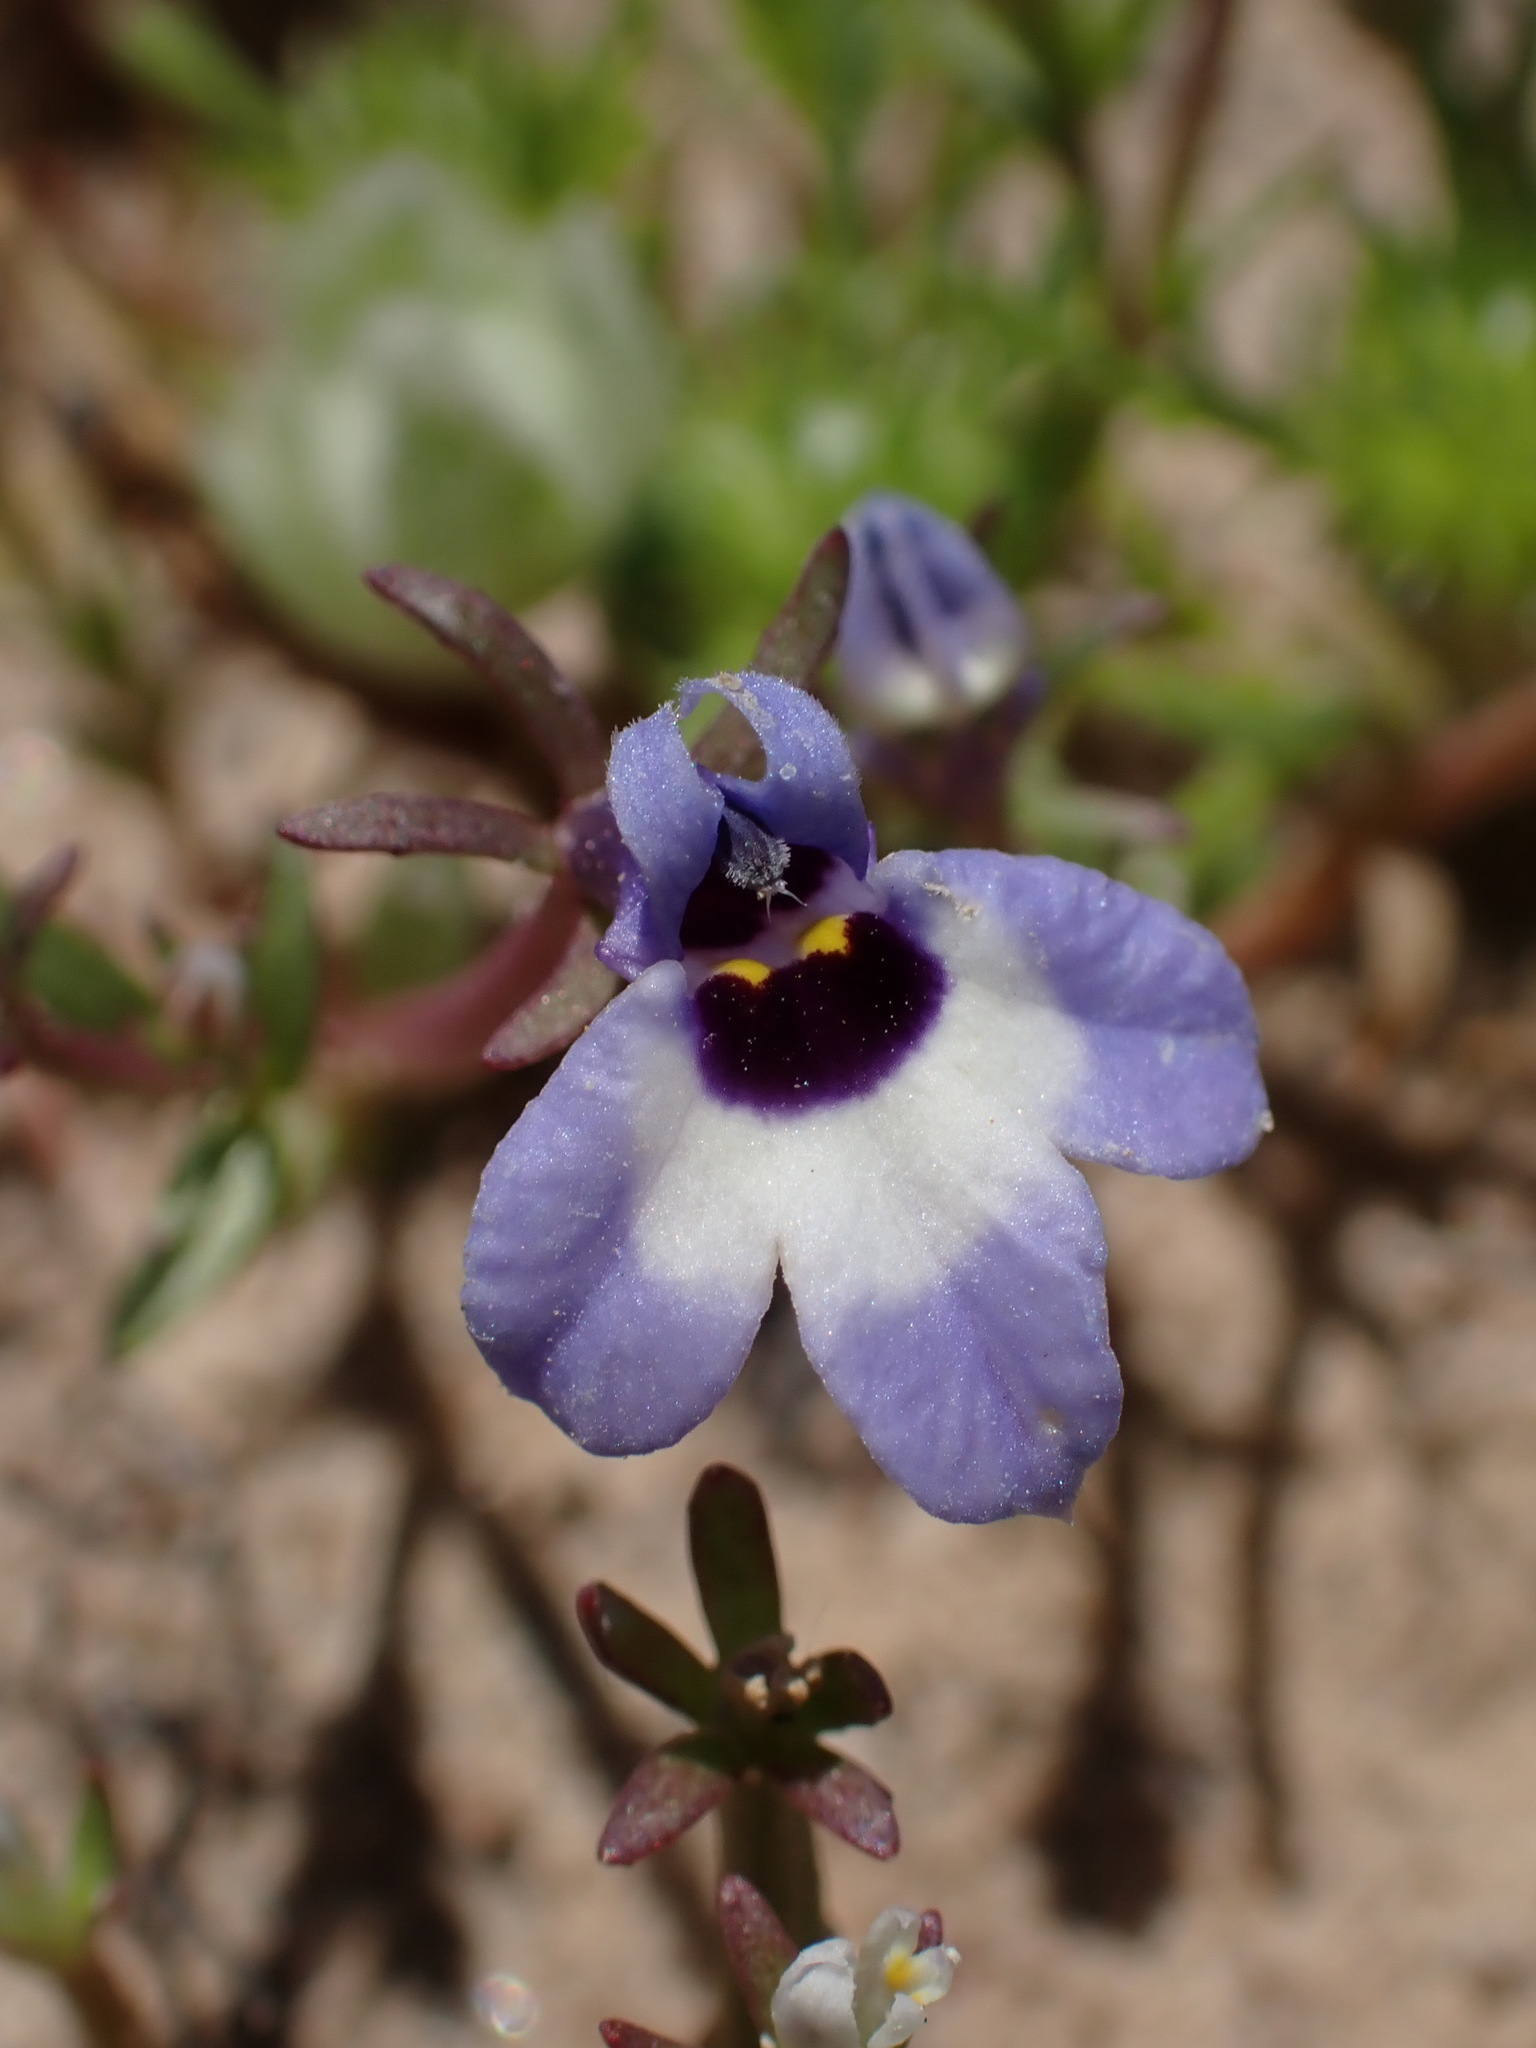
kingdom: Plantae
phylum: Tracheophyta
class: Magnoliopsida
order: Asterales
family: Campanulaceae
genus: Downingia
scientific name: Downingia concolor
